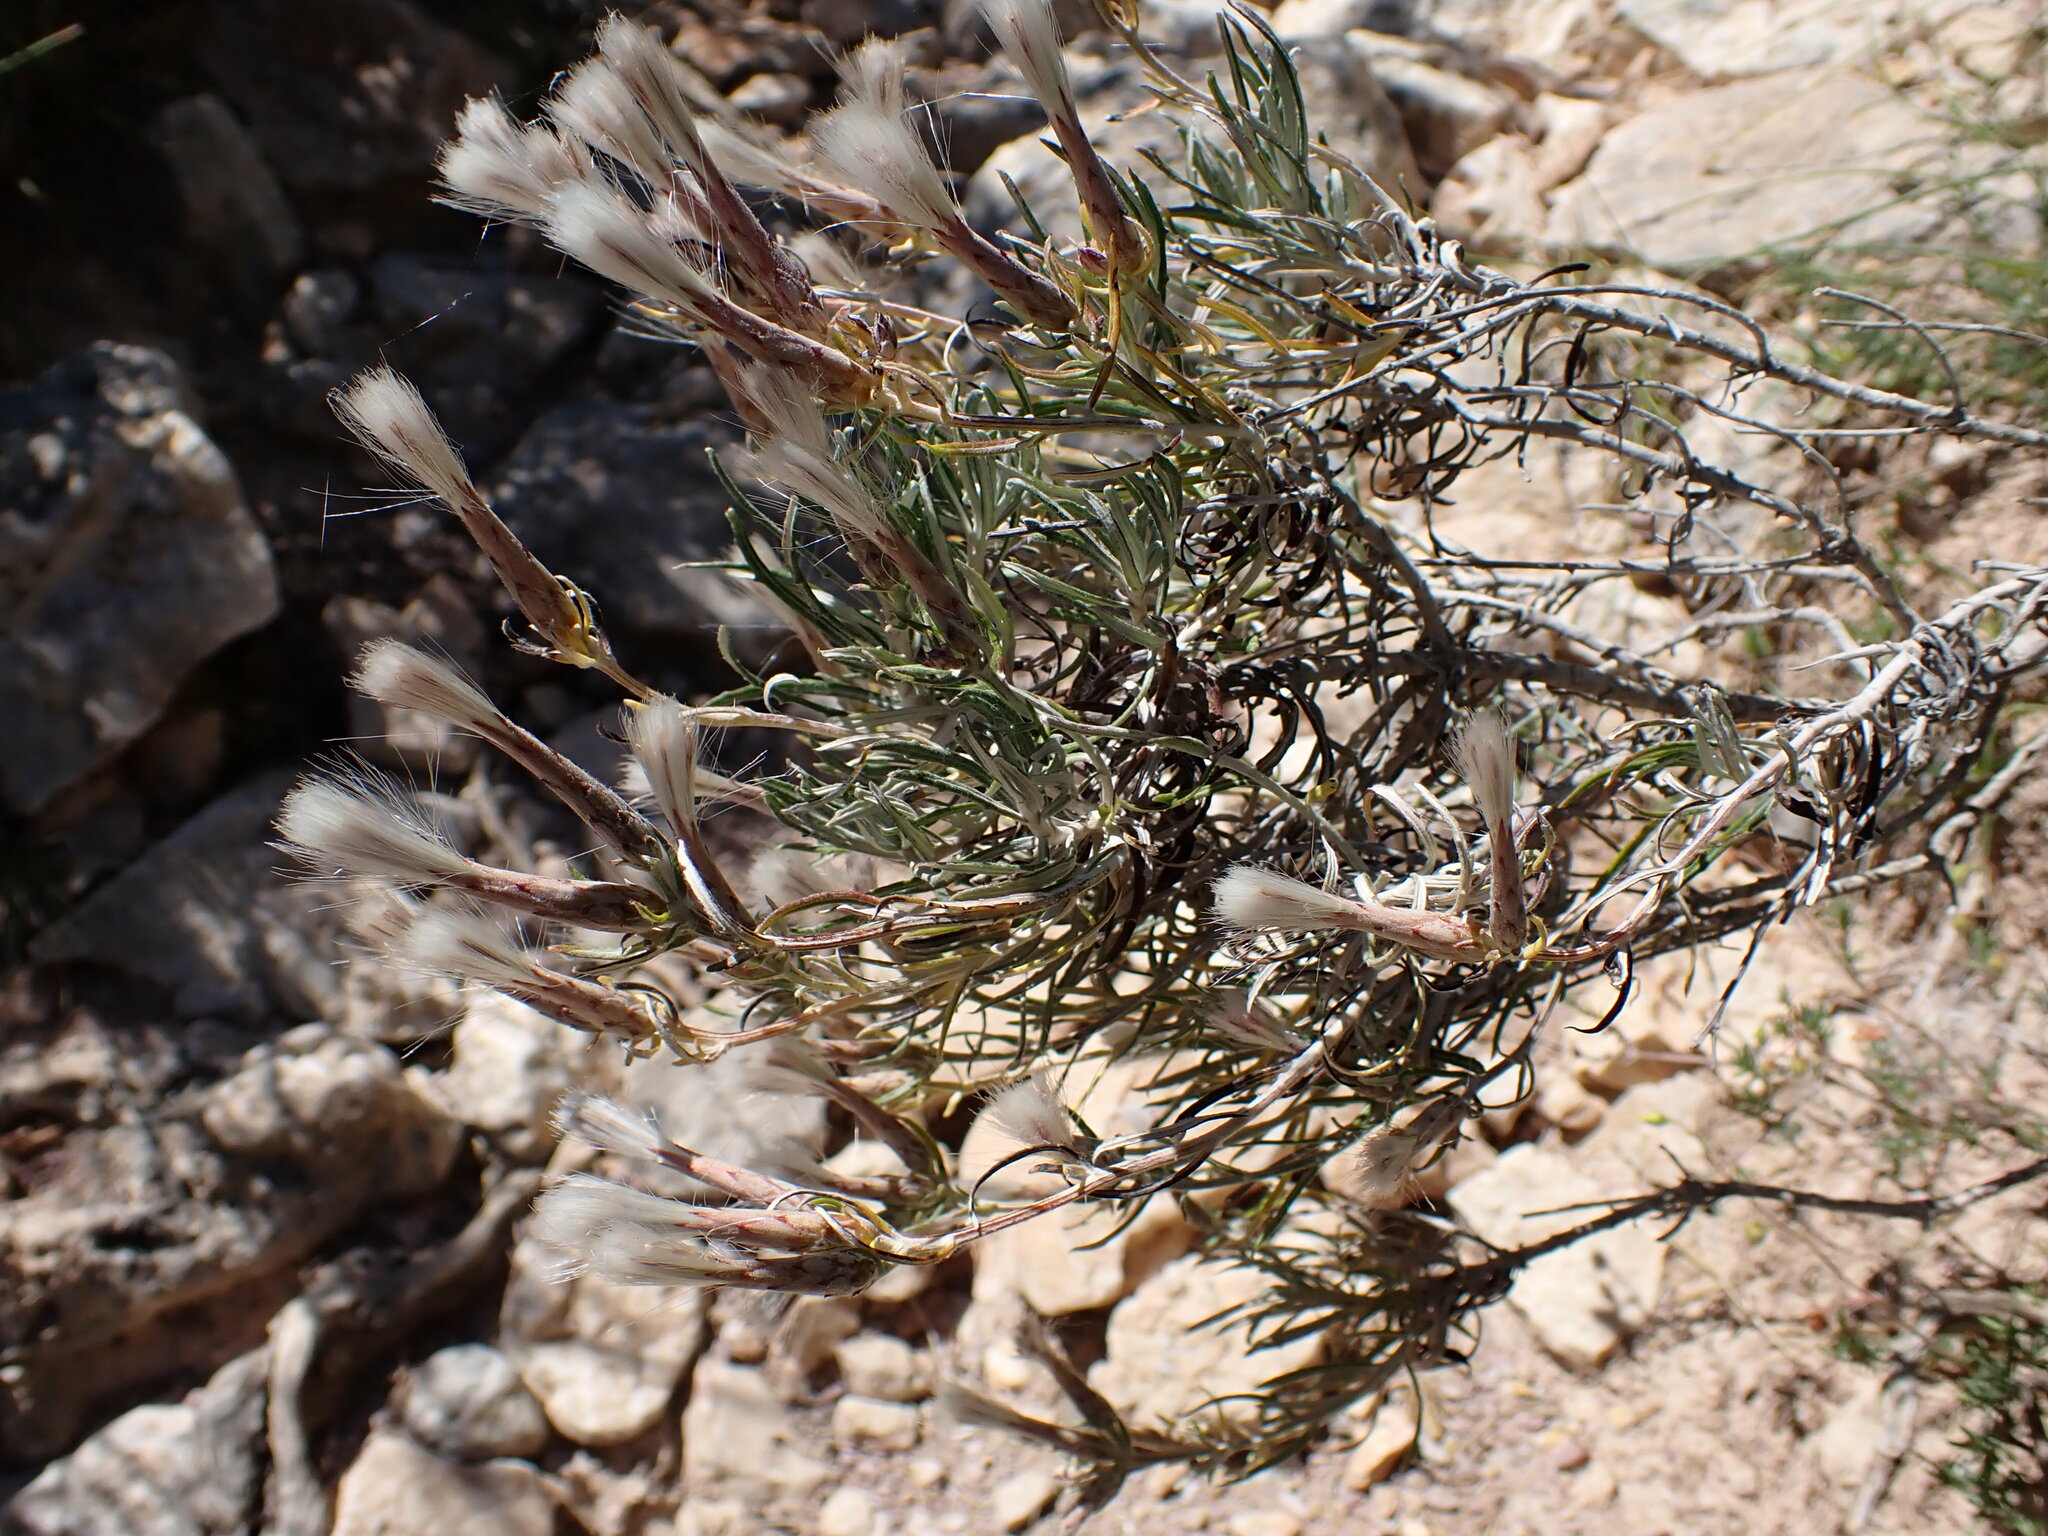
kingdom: Plantae
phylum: Tracheophyta
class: Magnoliopsida
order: Asterales
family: Asteraceae
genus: Staehelina
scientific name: Staehelina dubia
